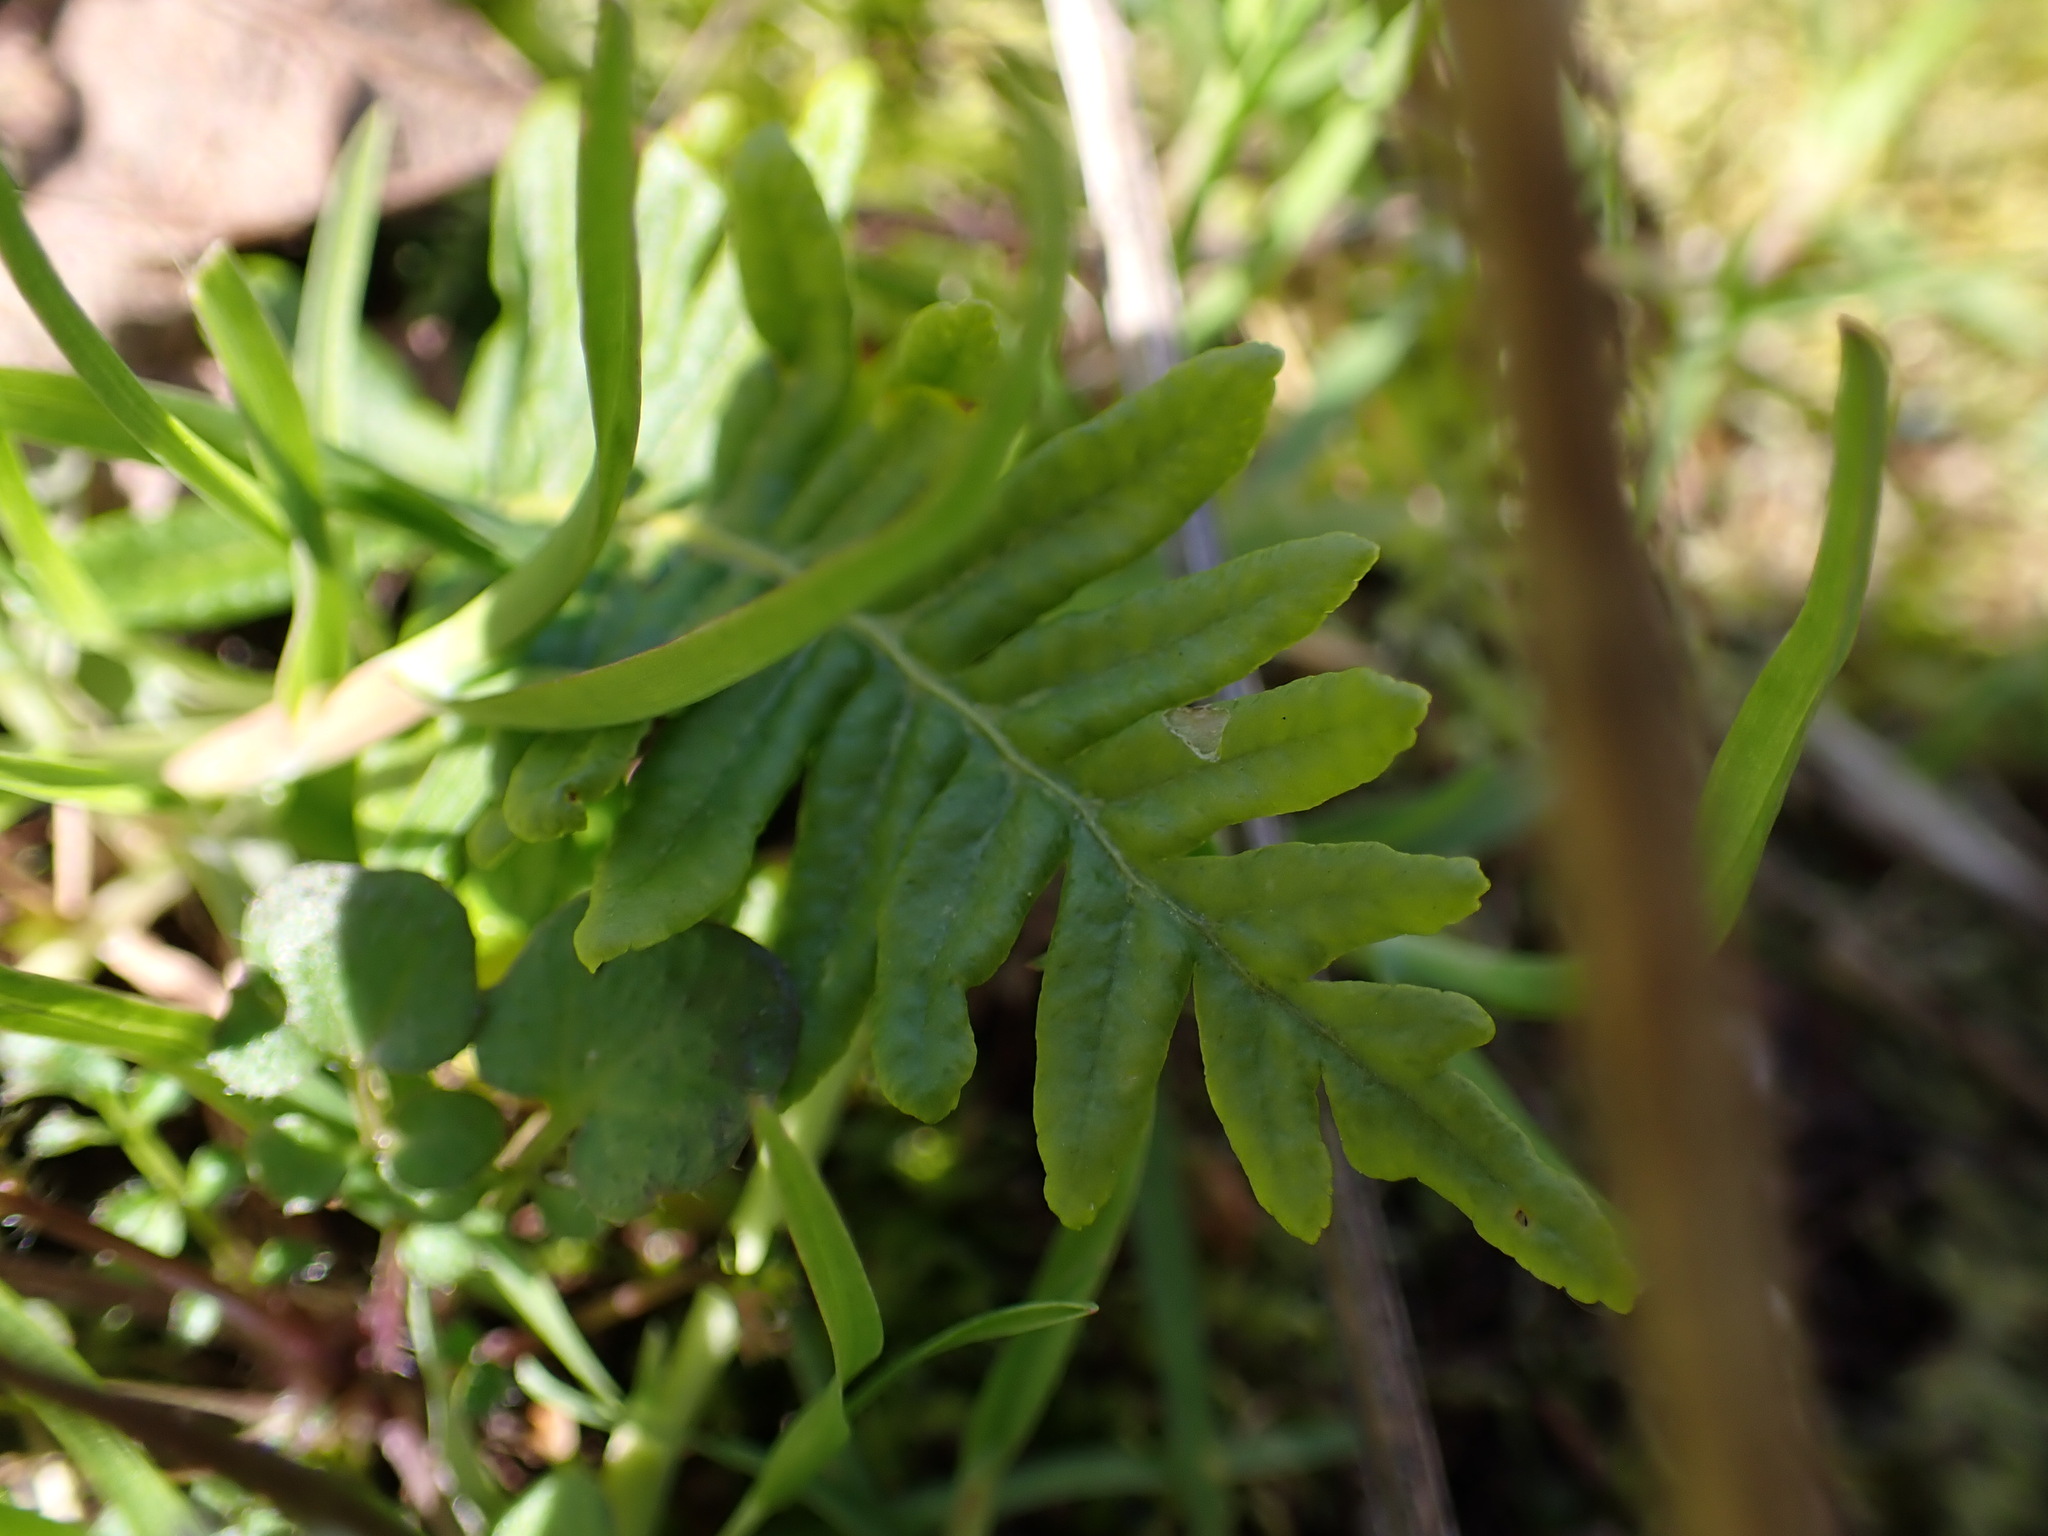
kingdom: Plantae
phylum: Tracheophyta
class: Polypodiopsida
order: Polypodiales
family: Polypodiaceae
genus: Polypodium
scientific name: Polypodium glycyrrhiza
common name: Licorice fern
